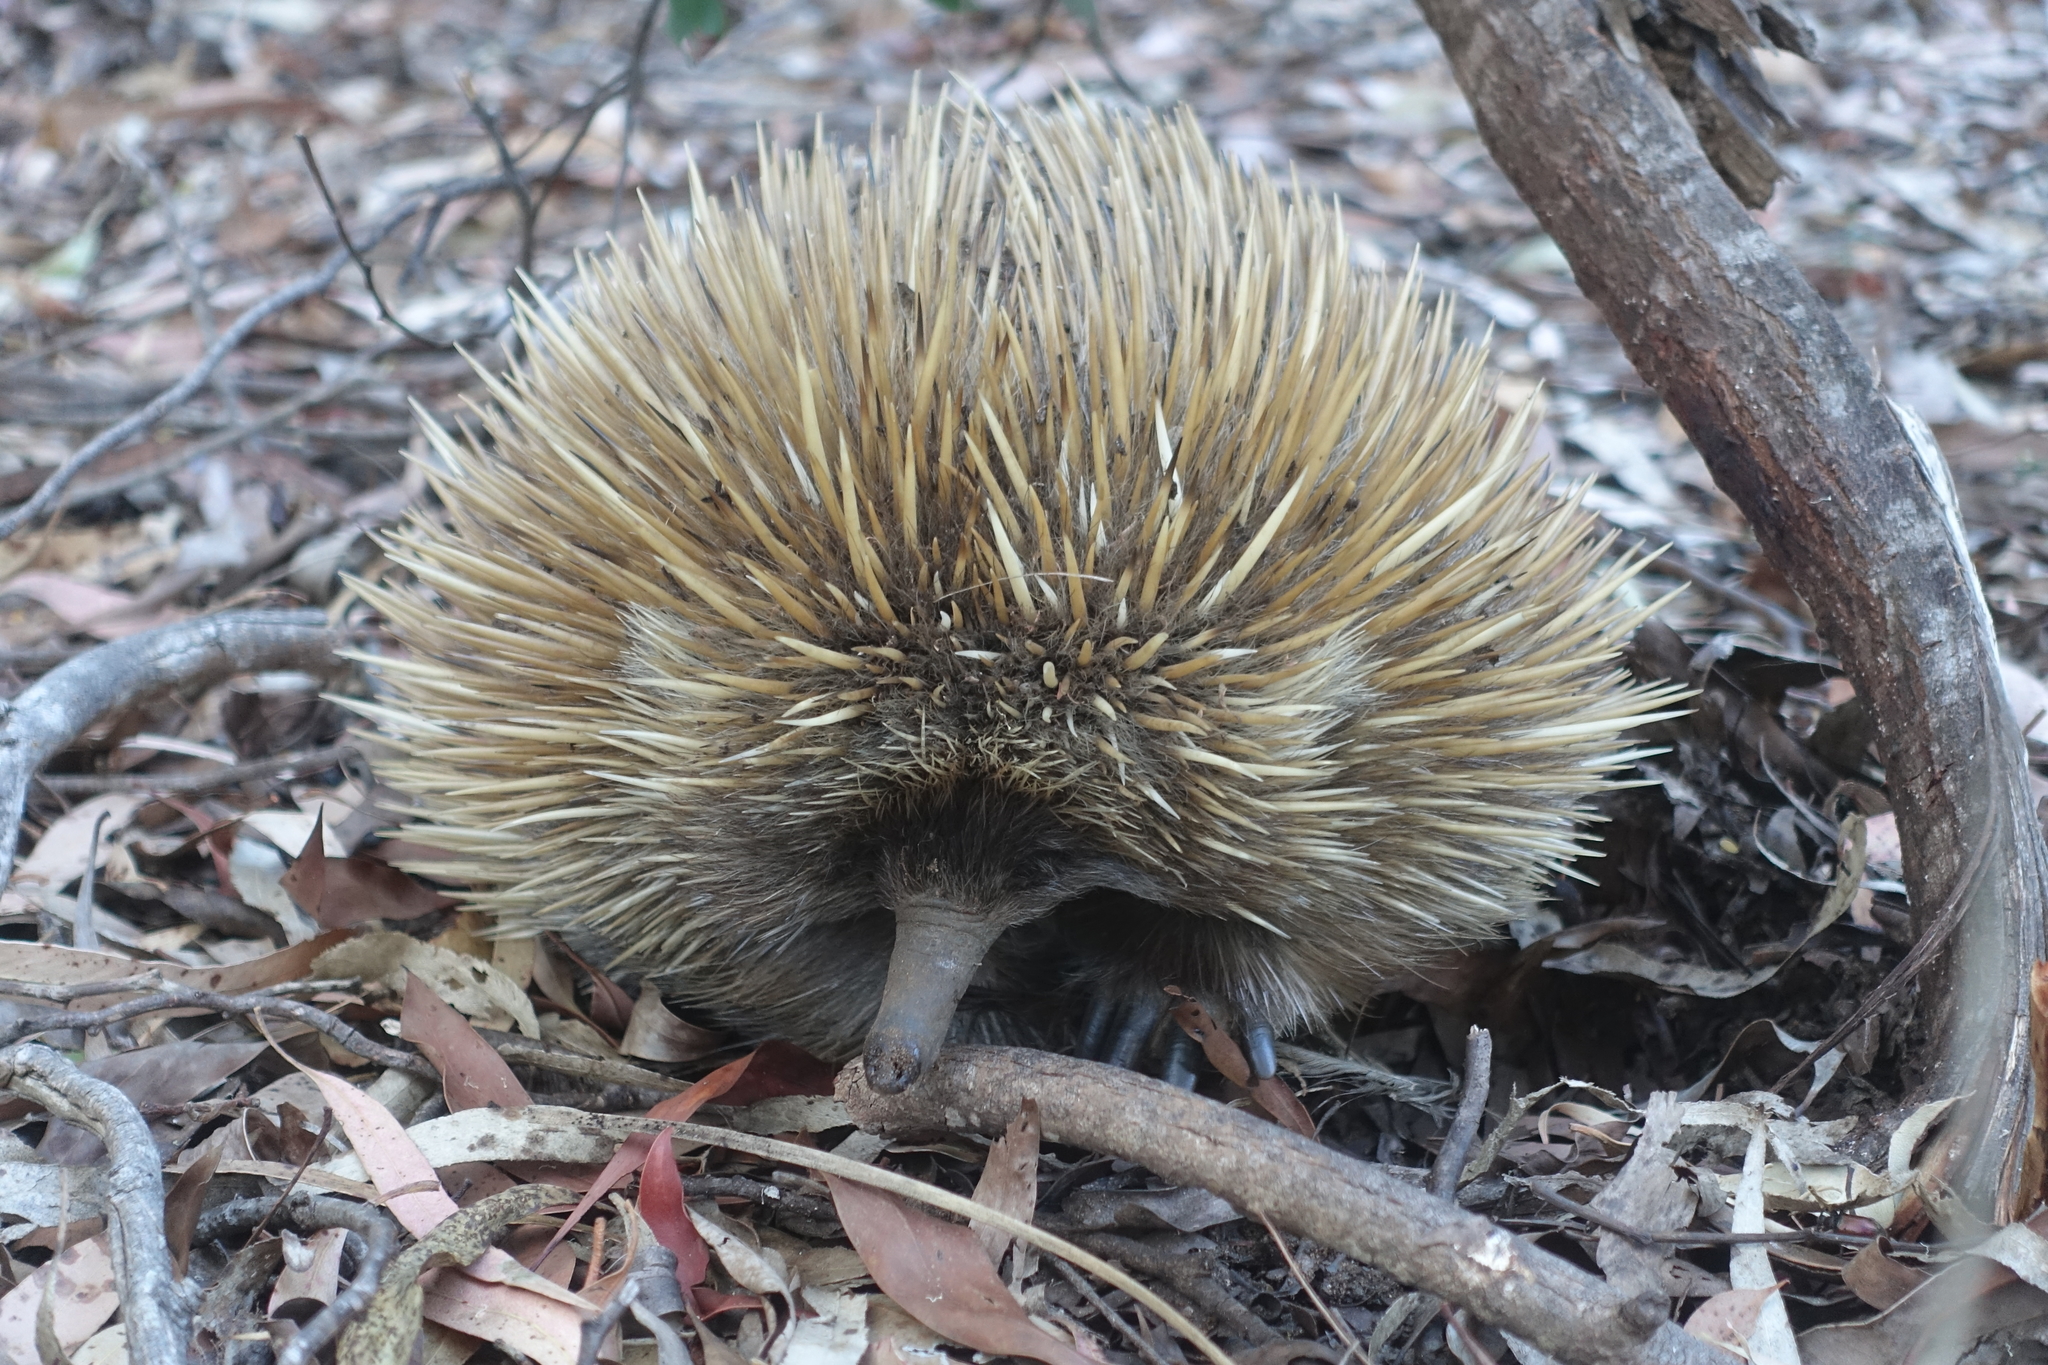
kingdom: Animalia
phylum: Chordata
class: Mammalia
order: Monotremata
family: Tachyglossidae
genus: Tachyglossus
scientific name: Tachyglossus aculeatus
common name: Short-beaked echidna
